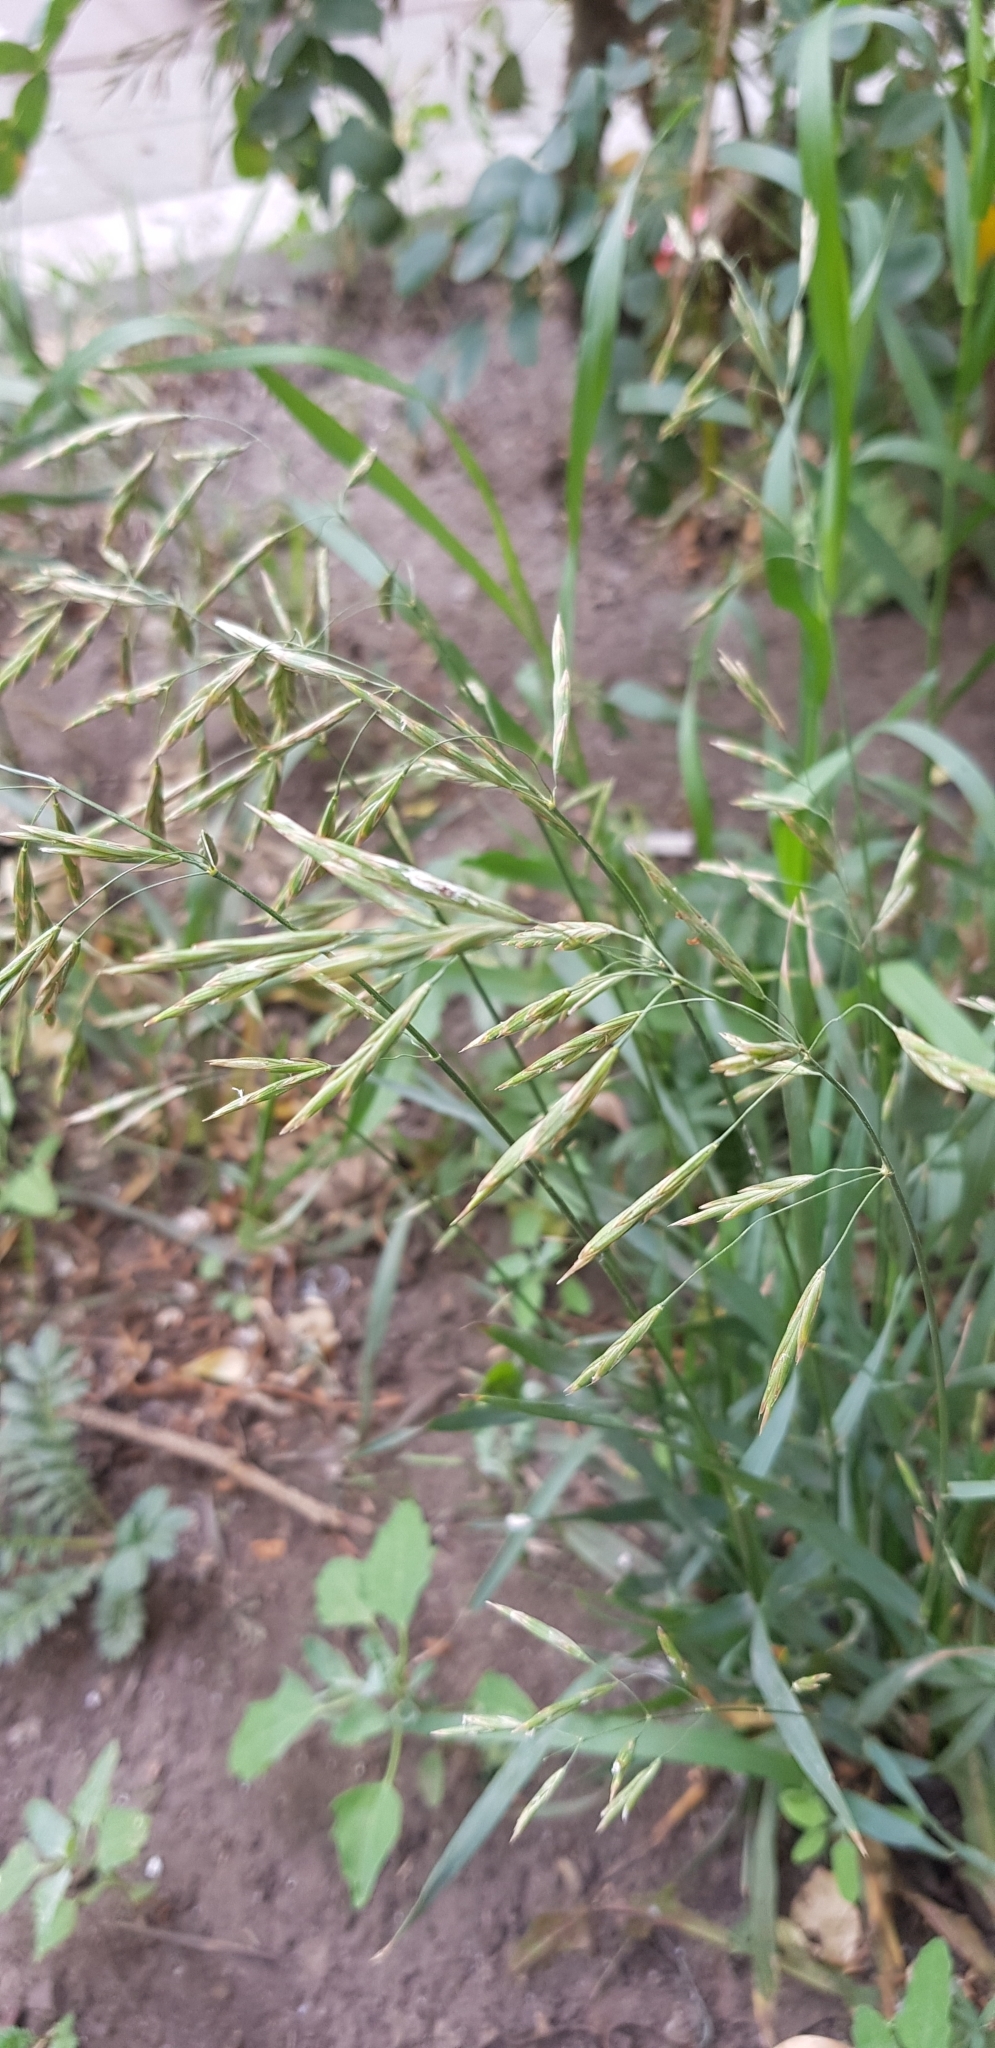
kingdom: Plantae
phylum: Tracheophyta
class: Liliopsida
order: Poales
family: Poaceae
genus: Bromus
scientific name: Bromus inermis
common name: Smooth brome
